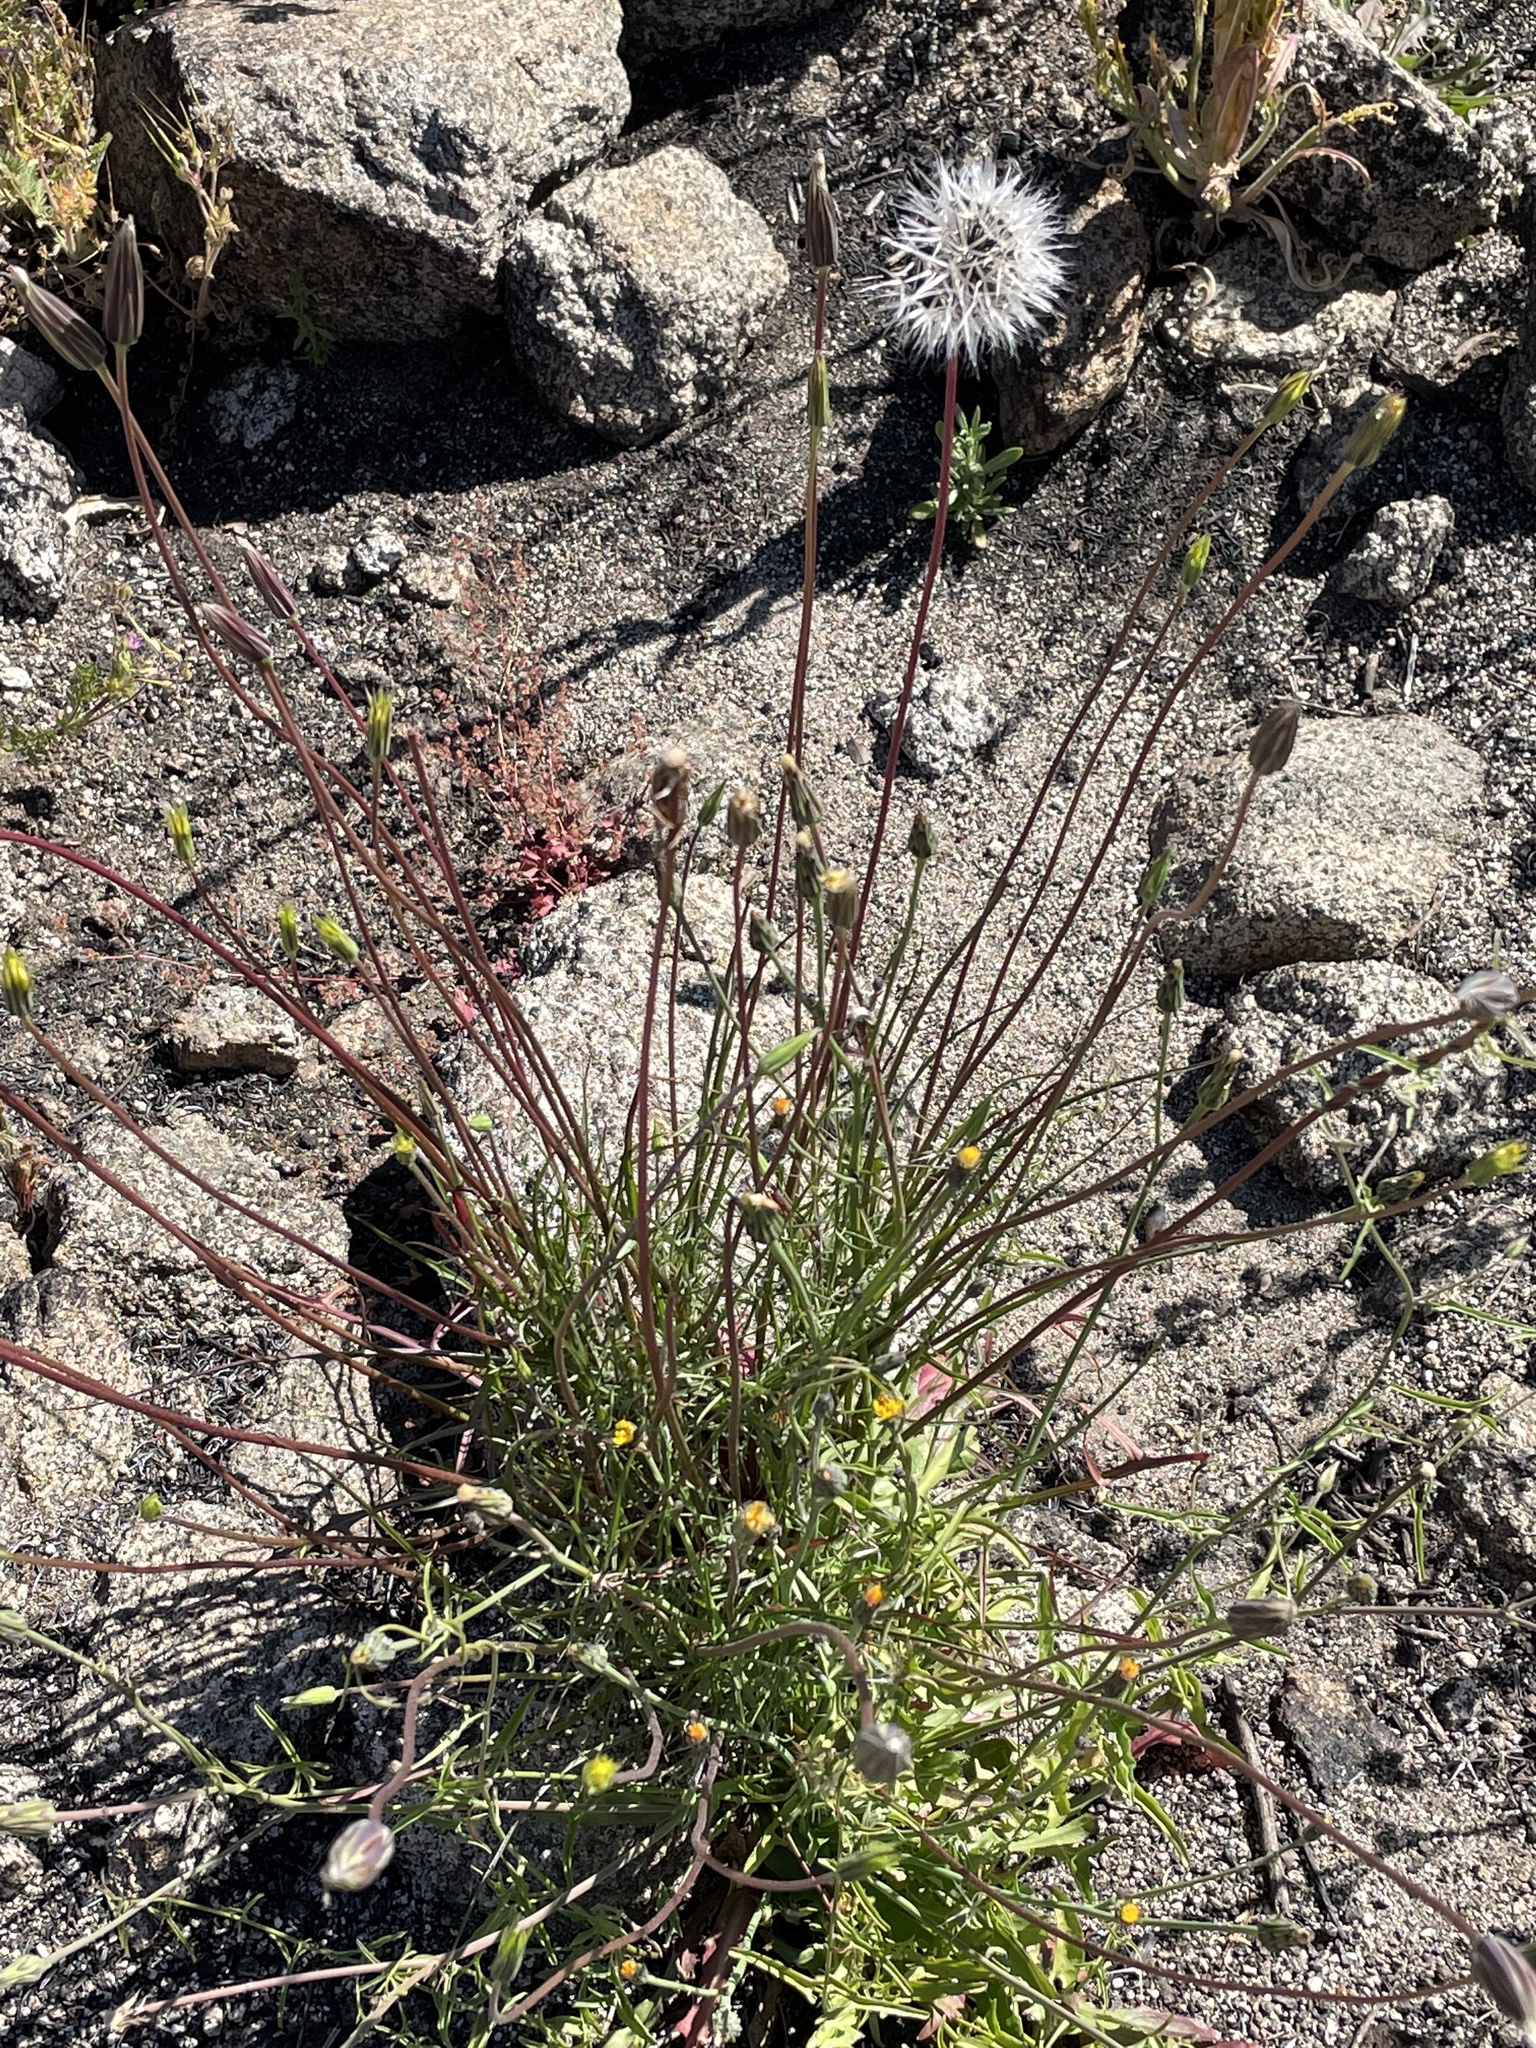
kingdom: Plantae
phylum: Tracheophyta
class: Magnoliopsida
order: Asterales
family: Asteraceae
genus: Microseris
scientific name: Microseris lindleyi
